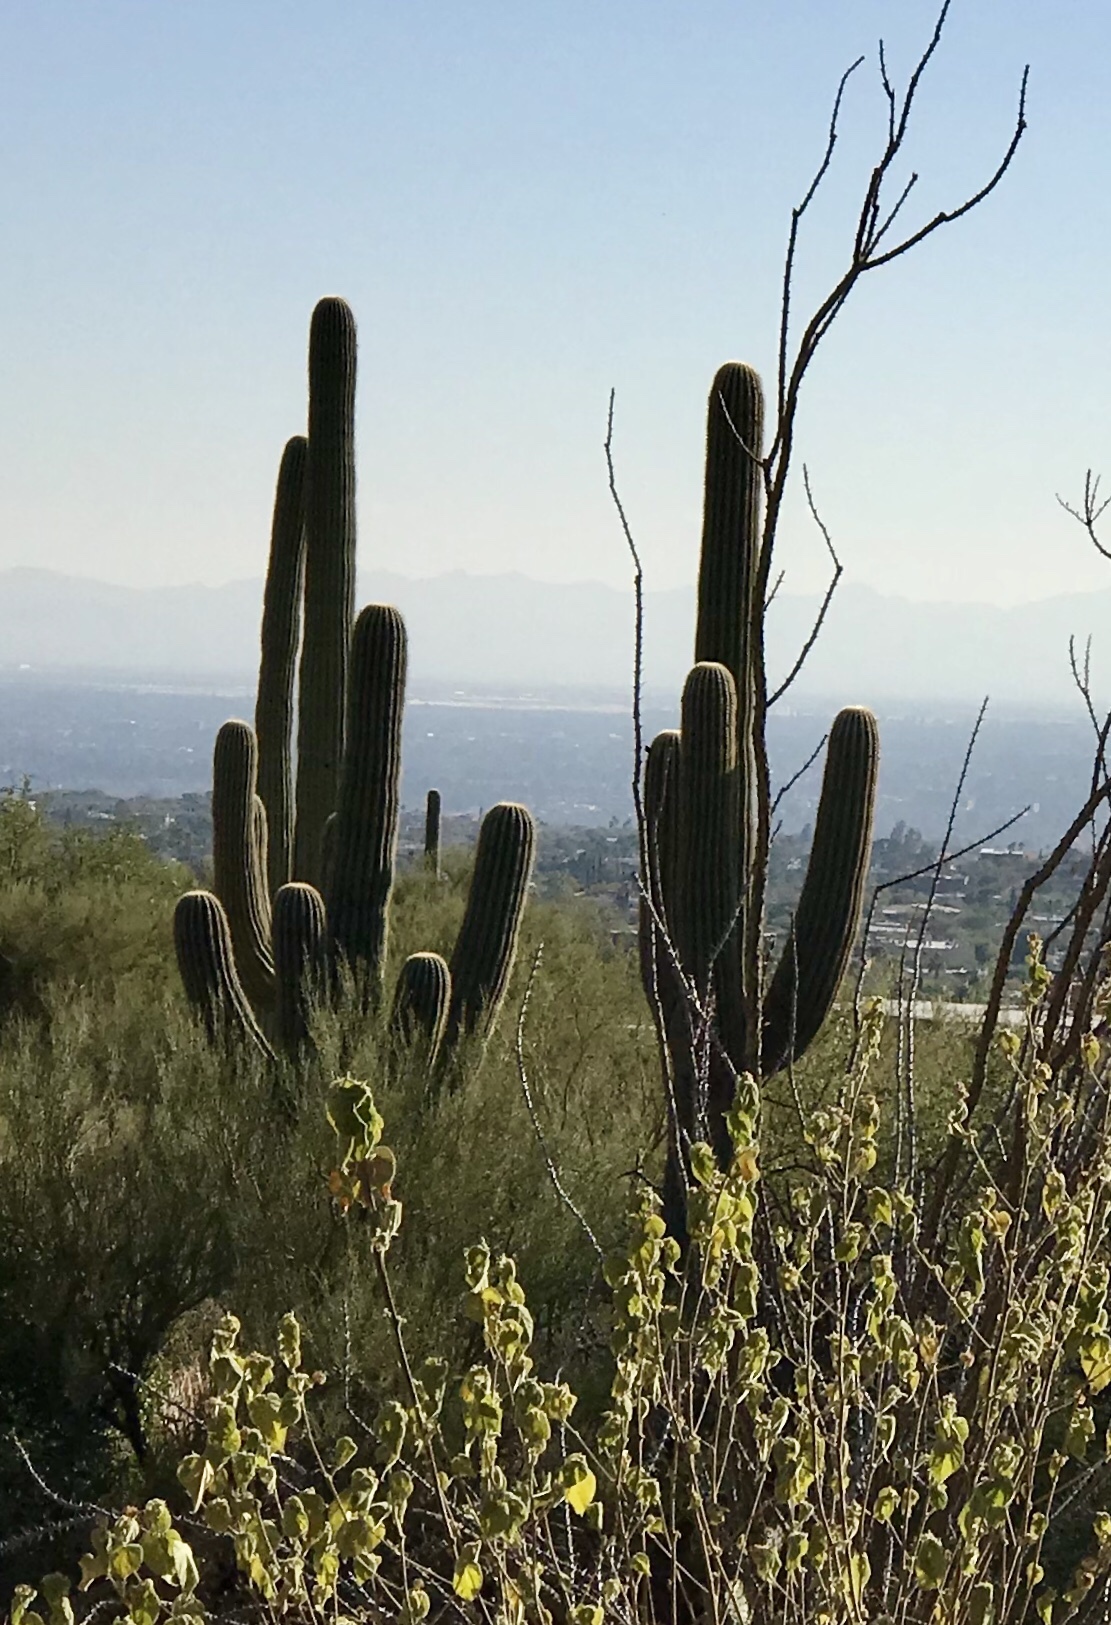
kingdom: Plantae
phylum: Tracheophyta
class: Magnoliopsida
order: Caryophyllales
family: Cactaceae
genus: Carnegiea
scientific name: Carnegiea gigantea
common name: Saguaro
